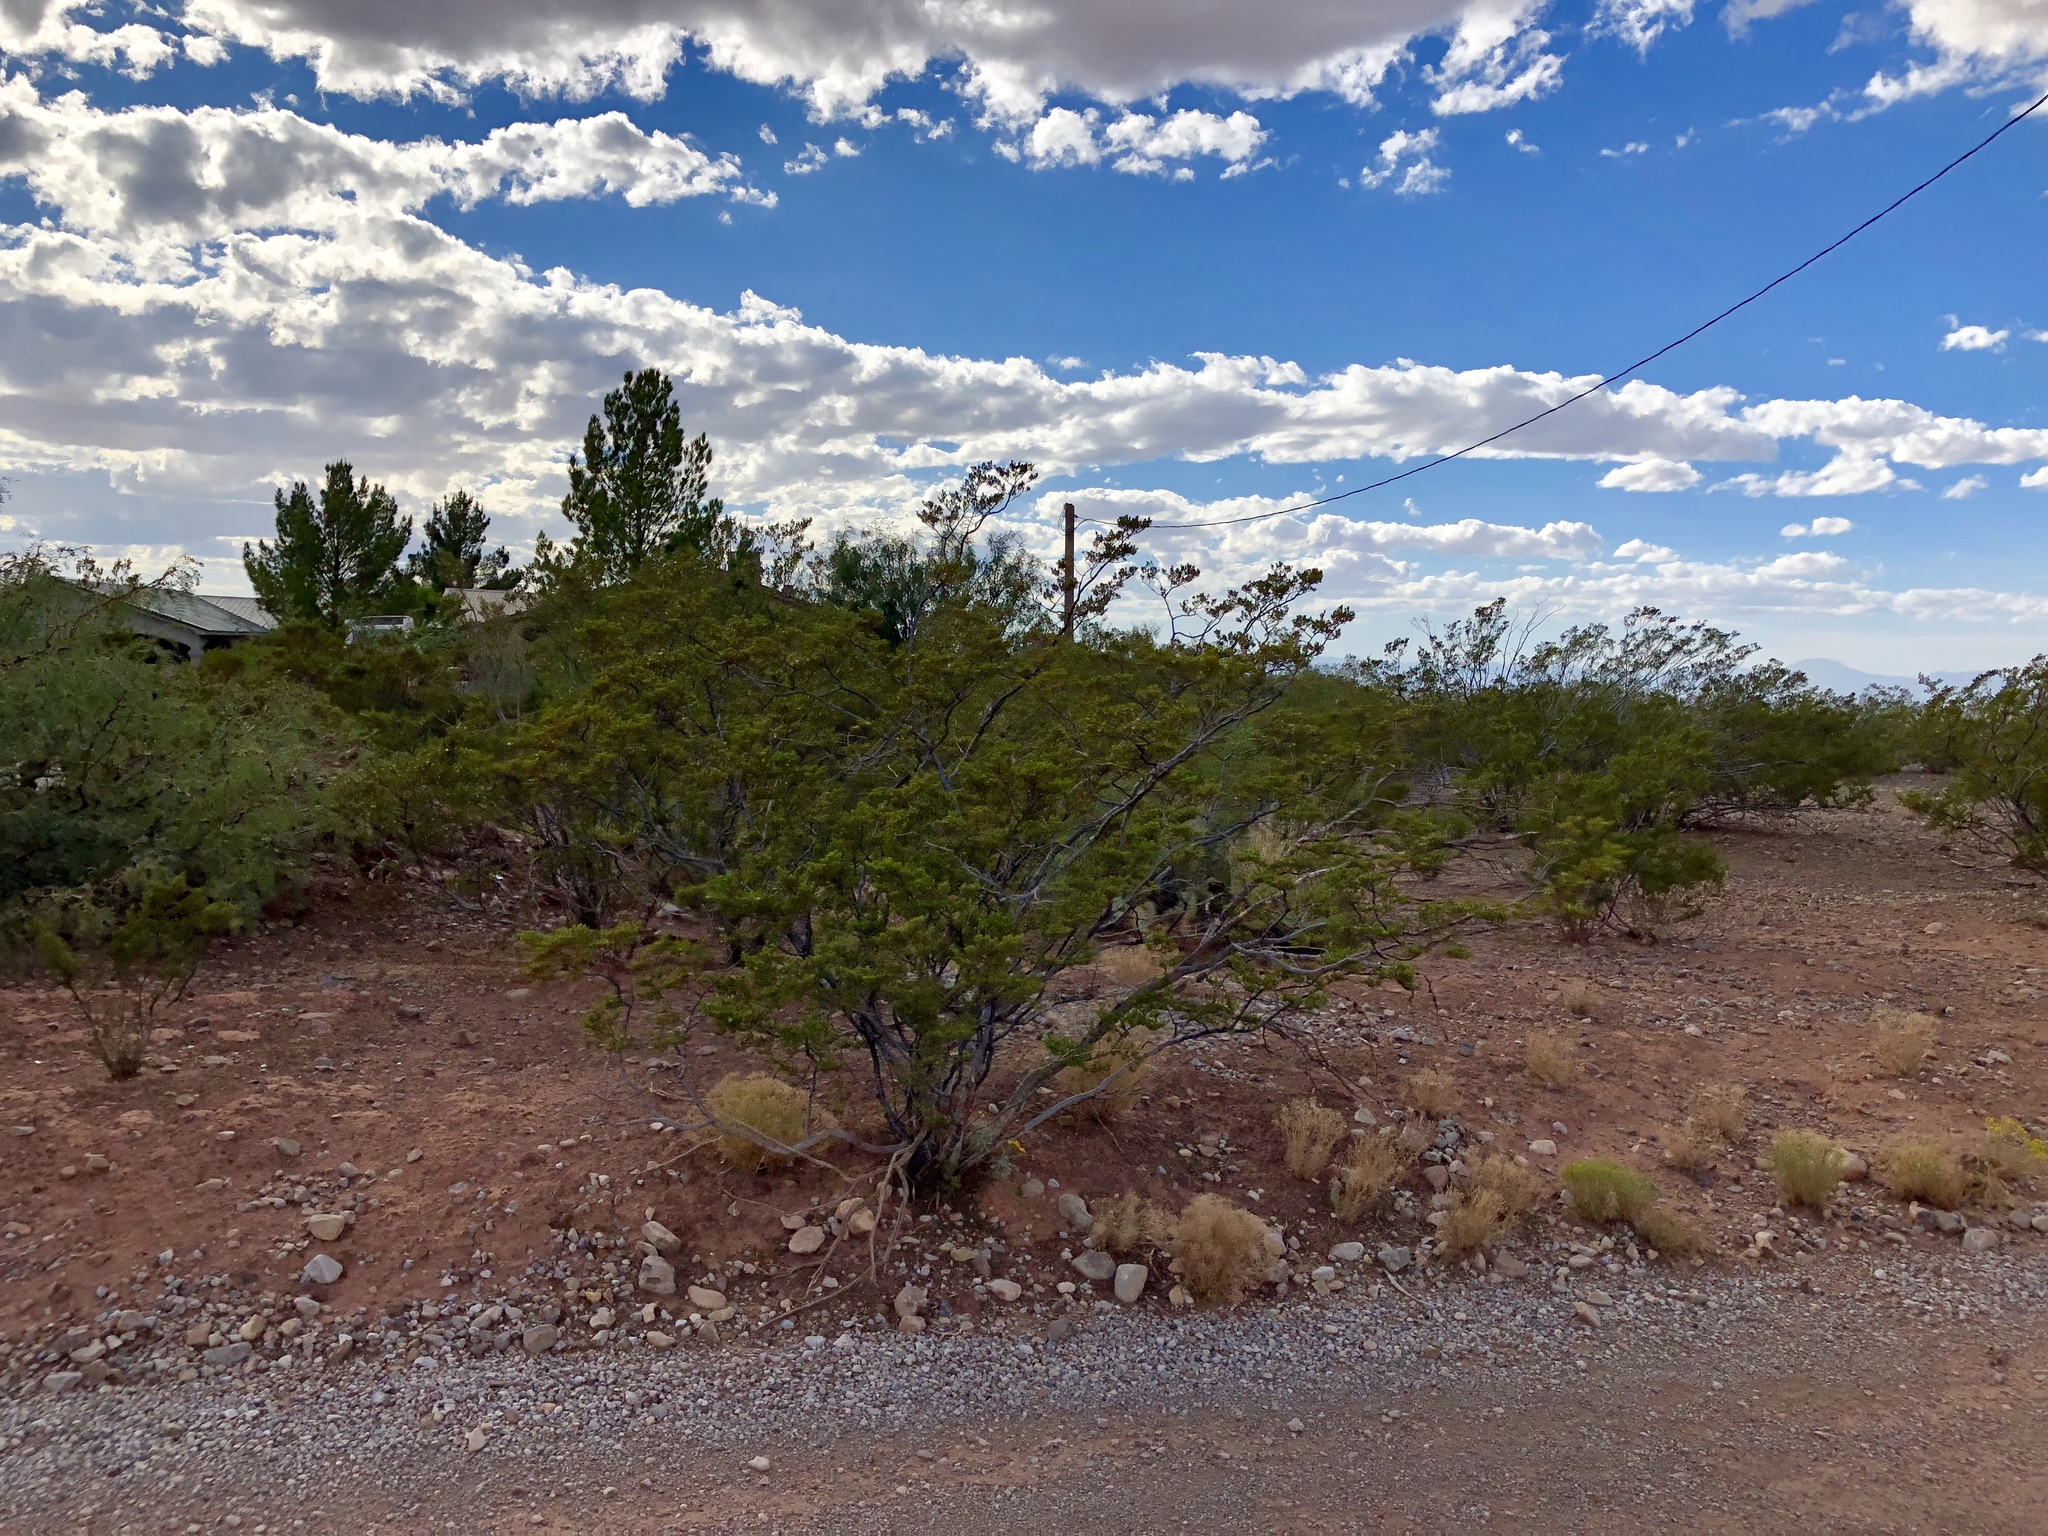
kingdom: Plantae
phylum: Tracheophyta
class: Magnoliopsida
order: Zygophyllales
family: Zygophyllaceae
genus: Larrea
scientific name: Larrea tridentata
